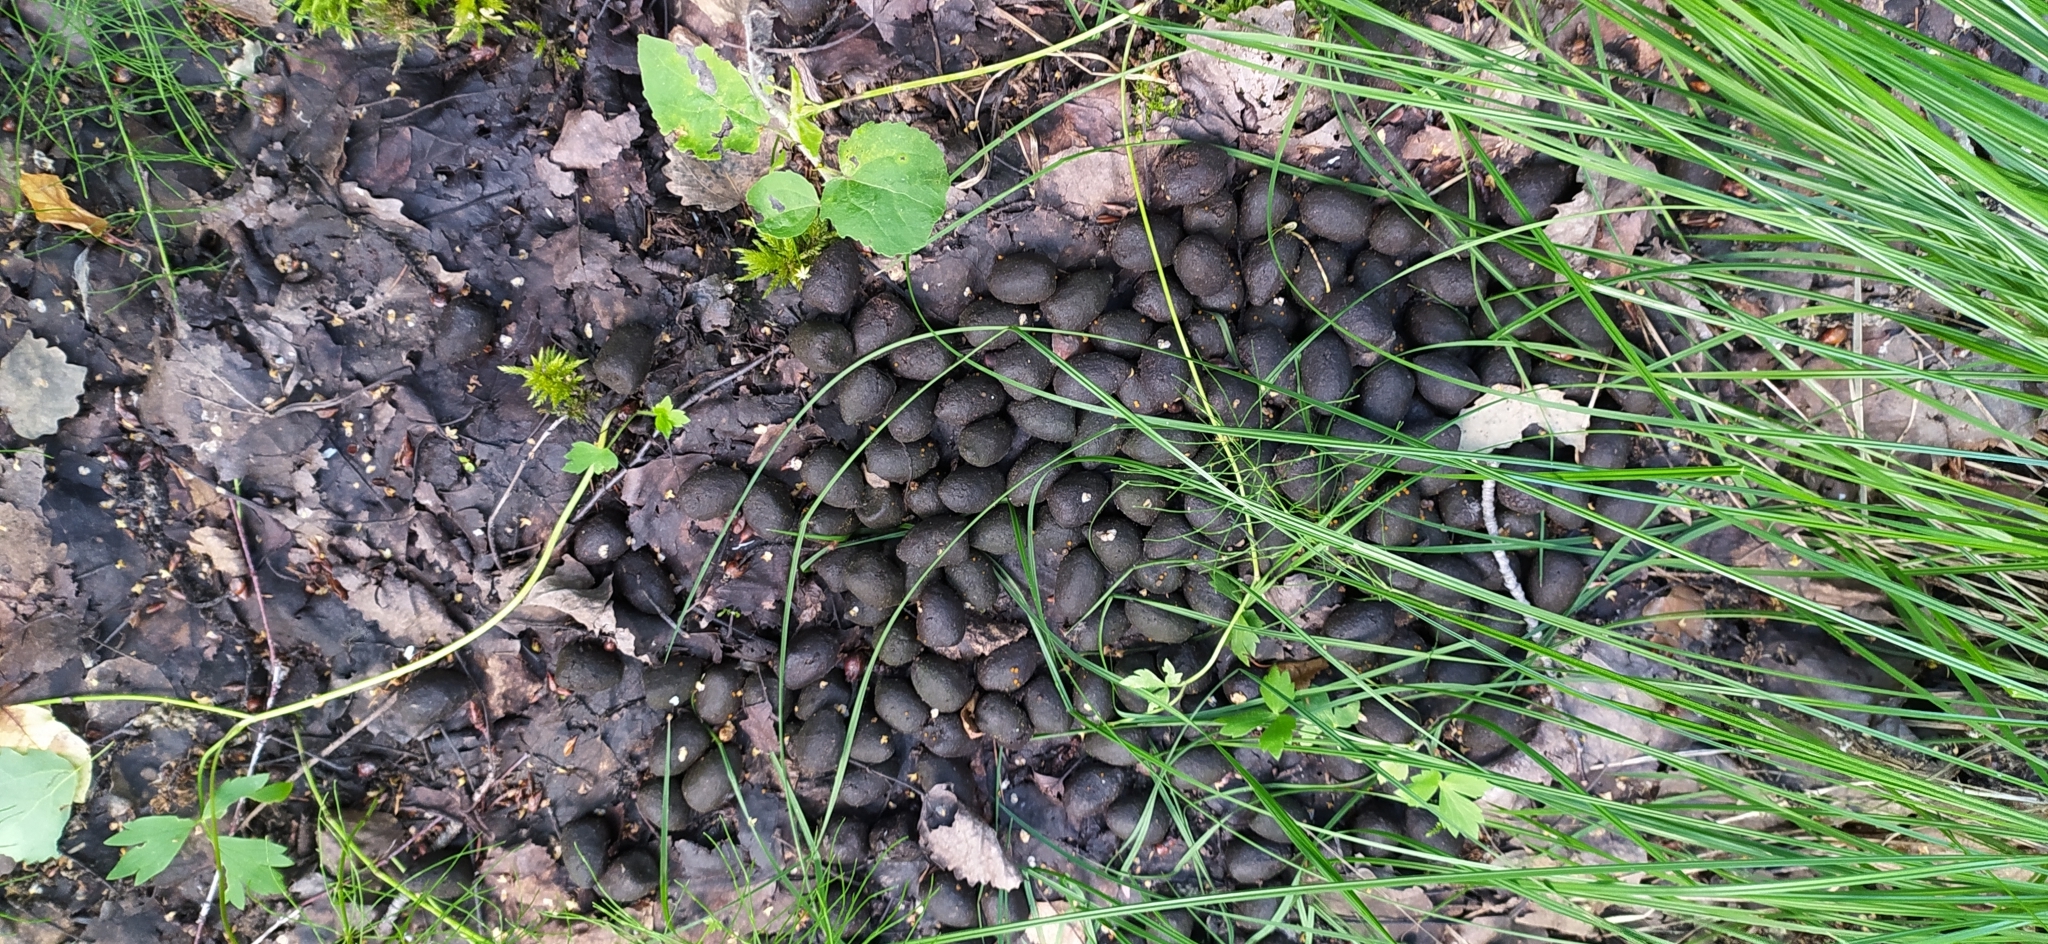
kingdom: Animalia
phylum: Chordata
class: Mammalia
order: Artiodactyla
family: Cervidae
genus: Alces
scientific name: Alces alces
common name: Moose
